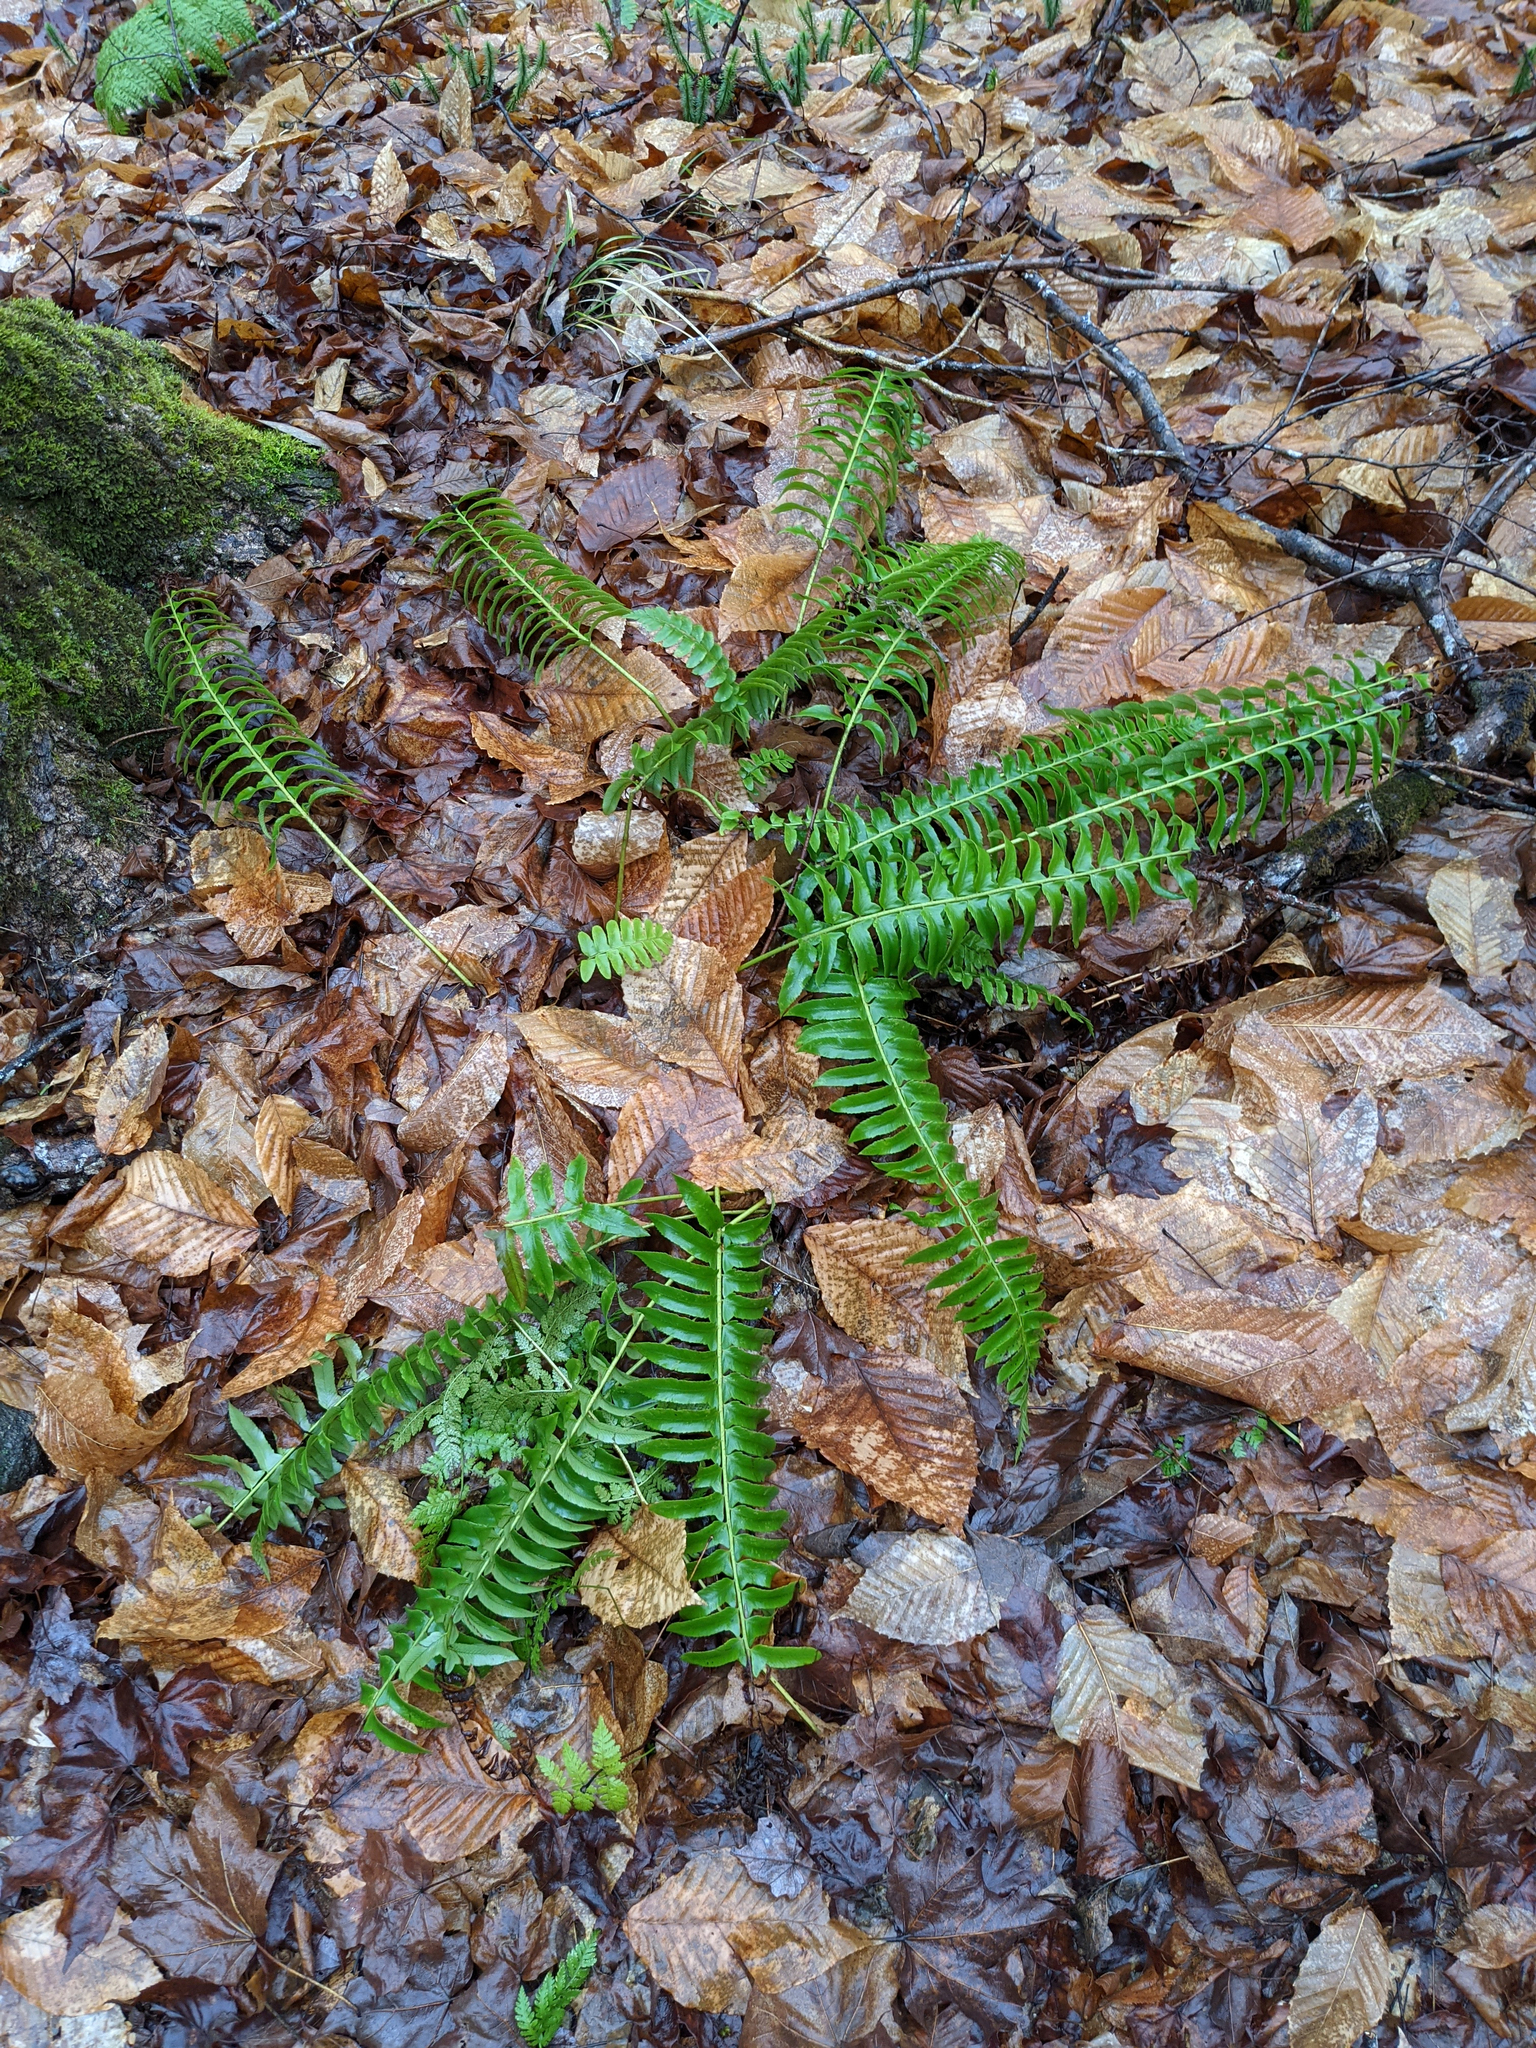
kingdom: Plantae
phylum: Tracheophyta
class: Polypodiopsida
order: Polypodiales
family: Dryopteridaceae
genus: Polystichum
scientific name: Polystichum acrostichoides
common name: Christmas fern
